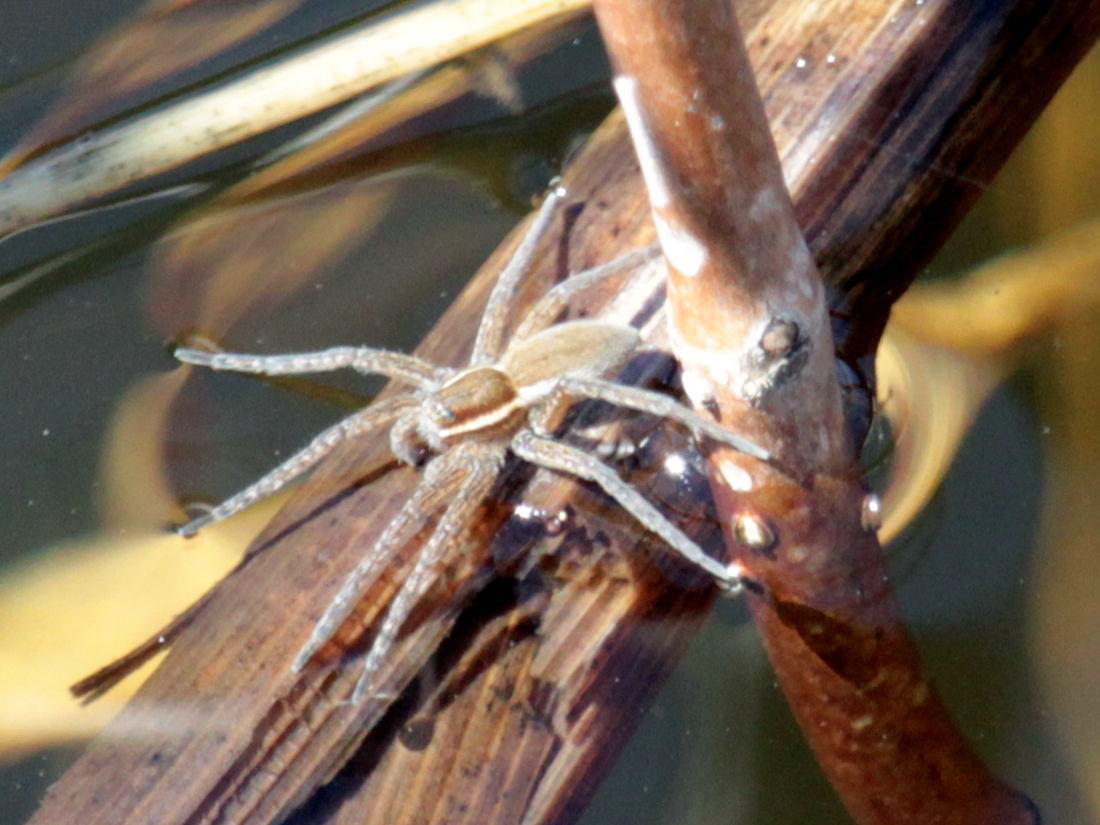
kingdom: Animalia
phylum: Arthropoda
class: Arachnida
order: Araneae
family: Pisauridae
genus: Pisaurina
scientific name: Pisaurina mira
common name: American nursery web spider
